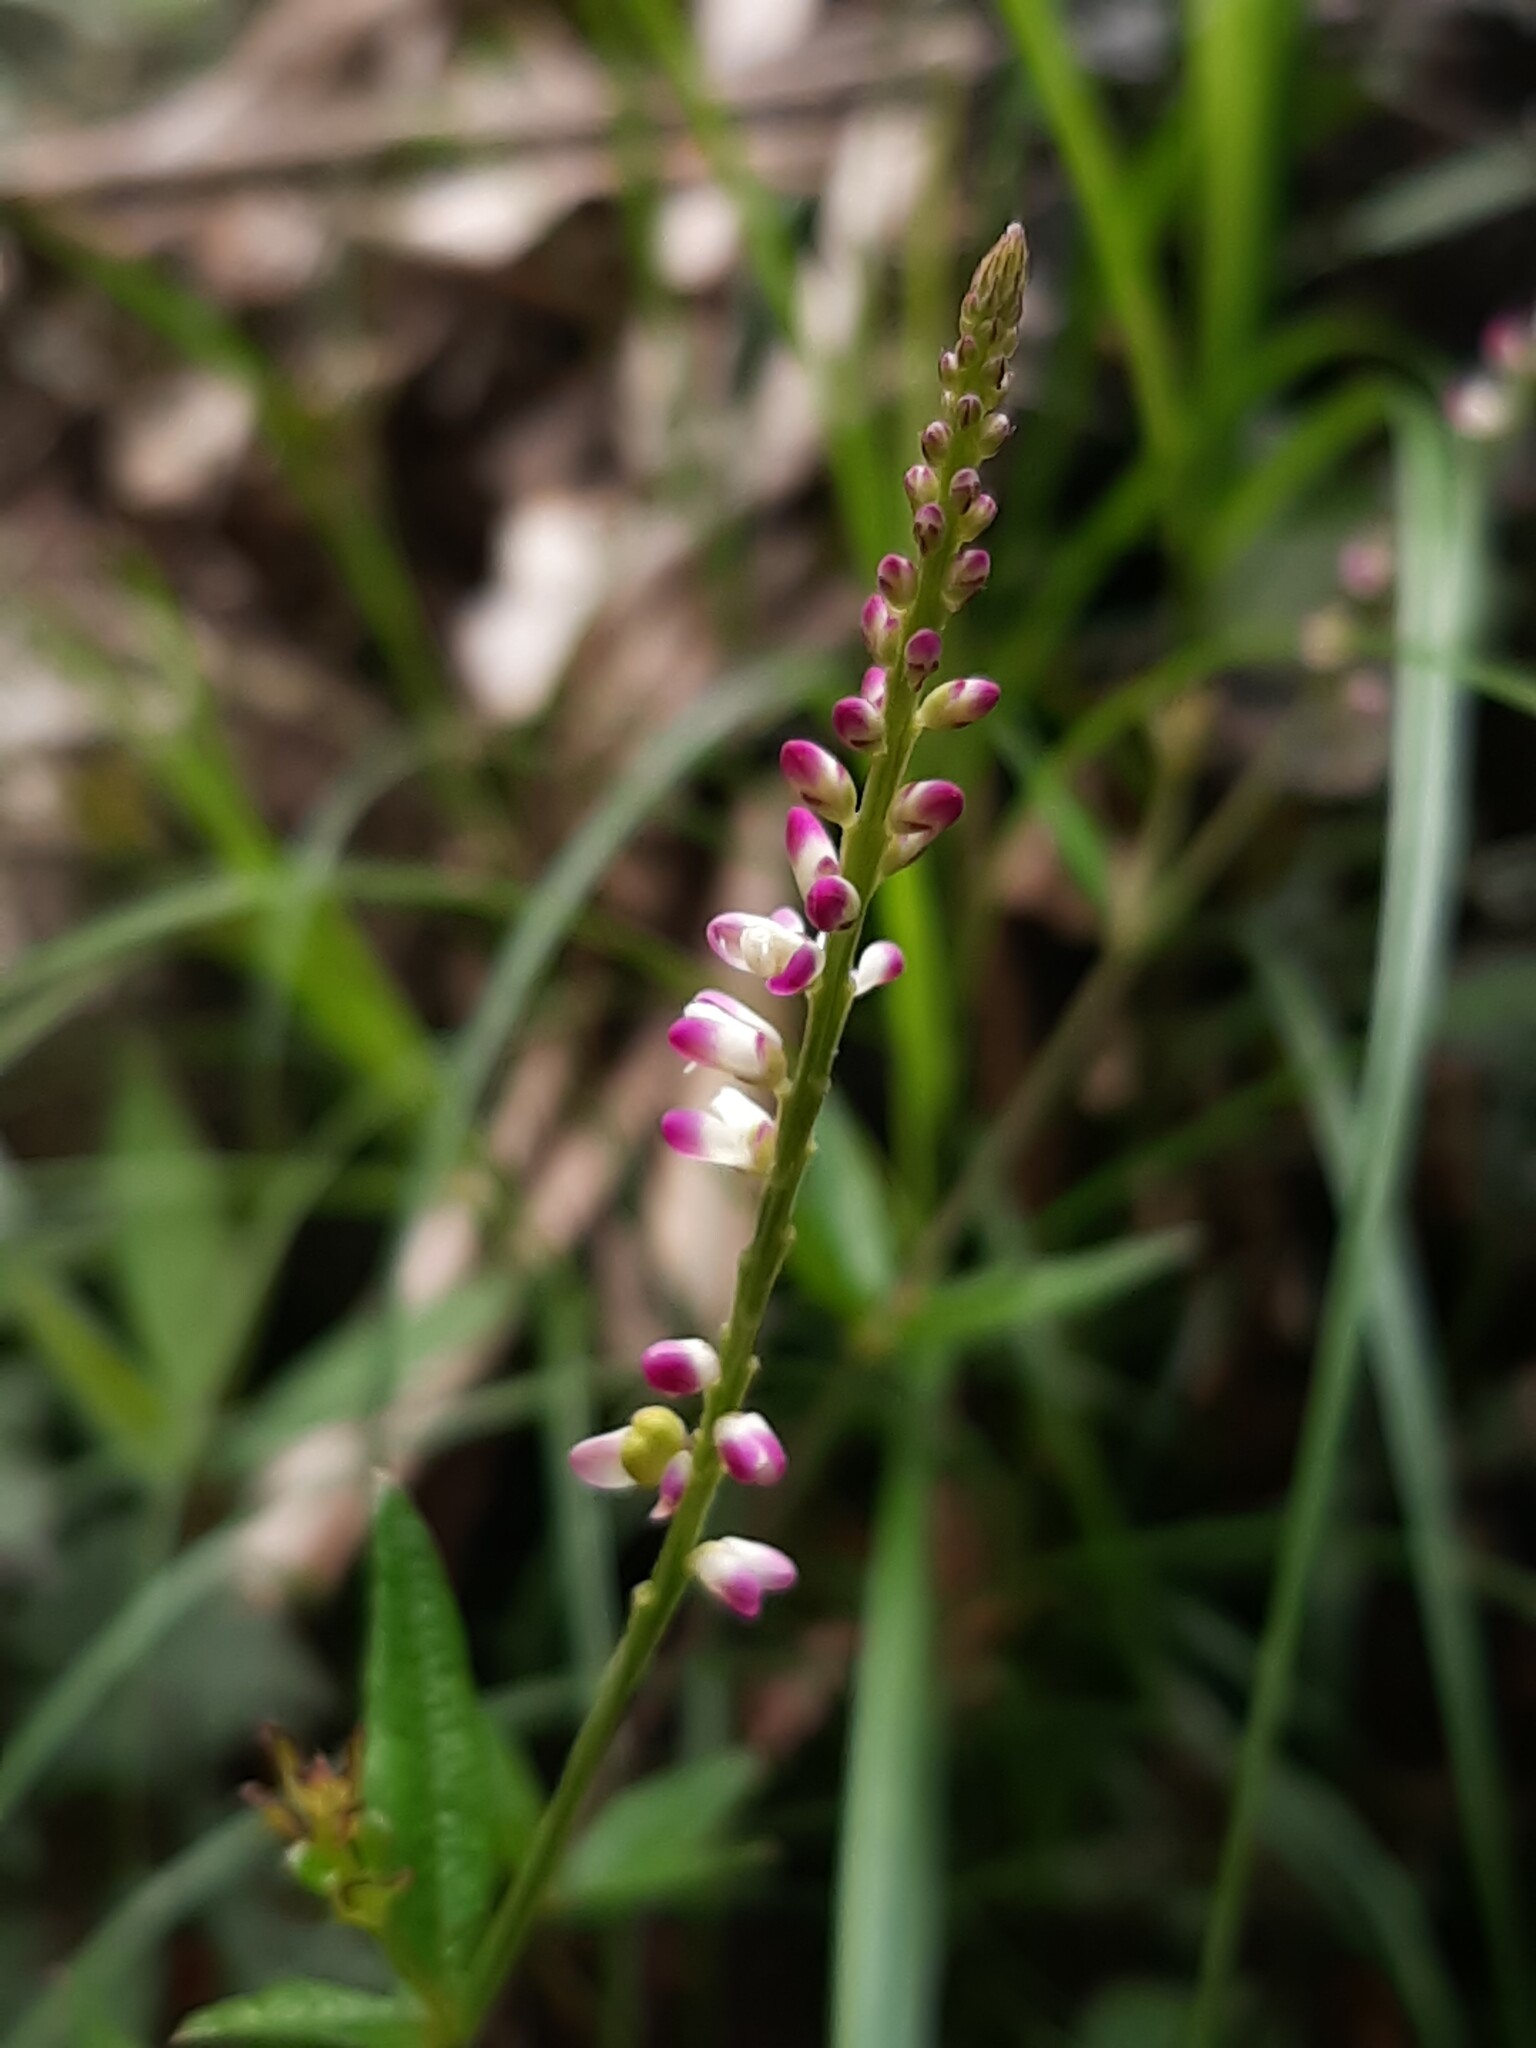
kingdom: Plantae
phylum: Tracheophyta
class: Magnoliopsida
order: Fabales
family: Polygalaceae
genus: Polygala
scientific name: Polygala aparinoides
